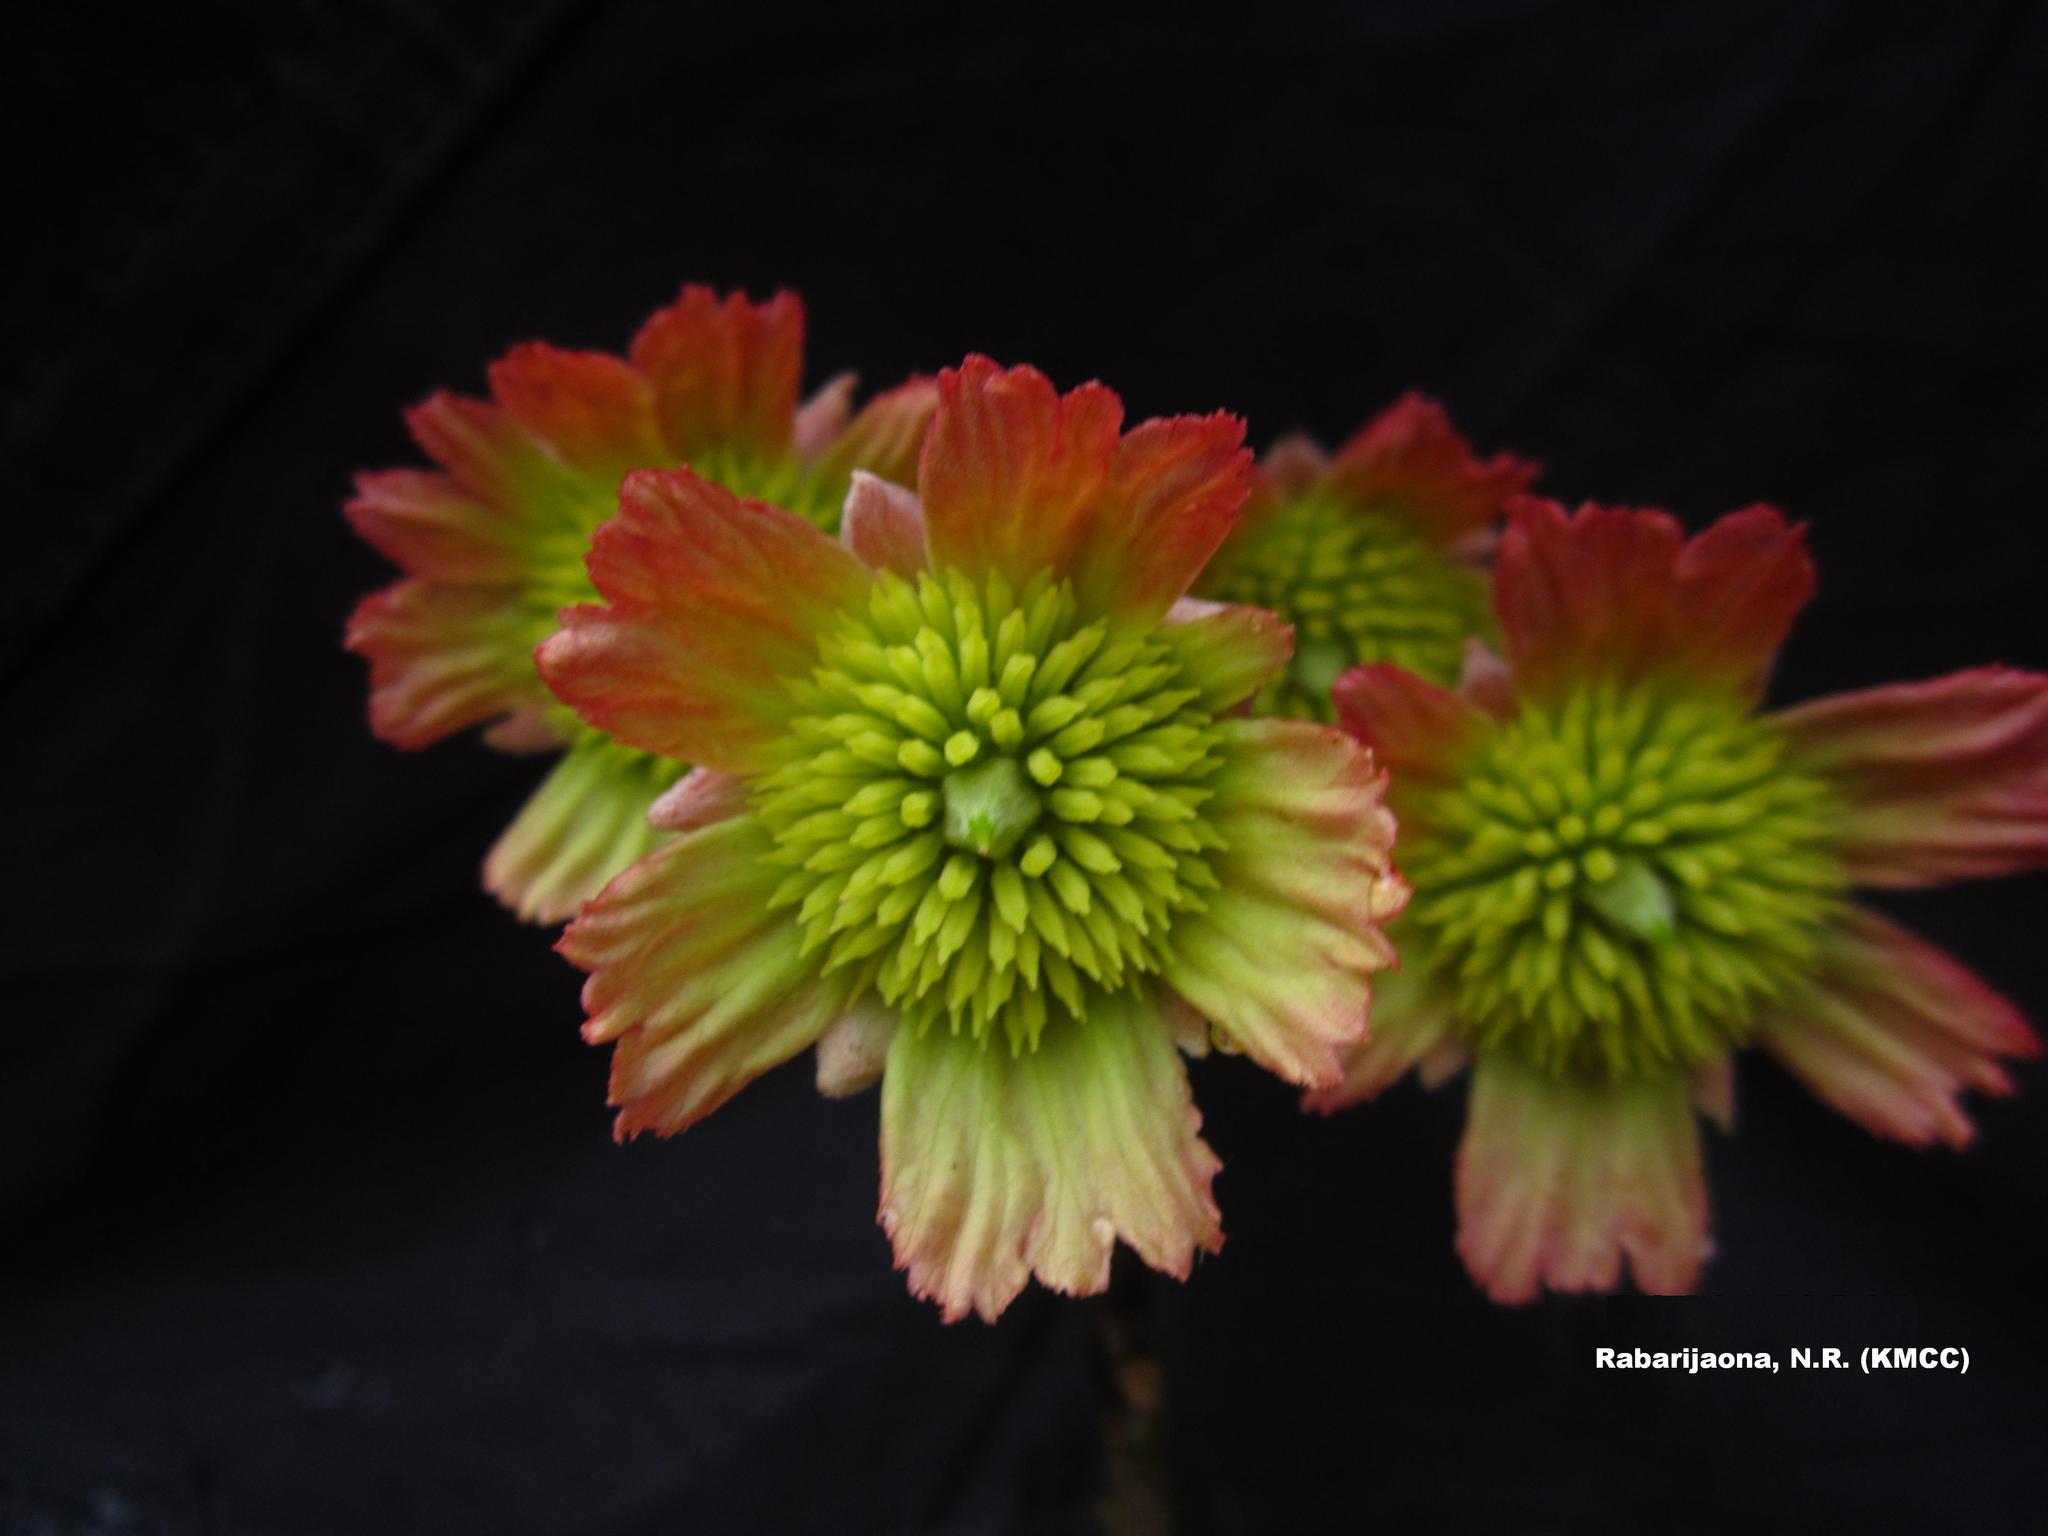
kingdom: Plantae
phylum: Tracheophyta
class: Magnoliopsida
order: Oxalidales
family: Elaeocarpaceae
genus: Sloanea
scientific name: Sloanea rhodantha
